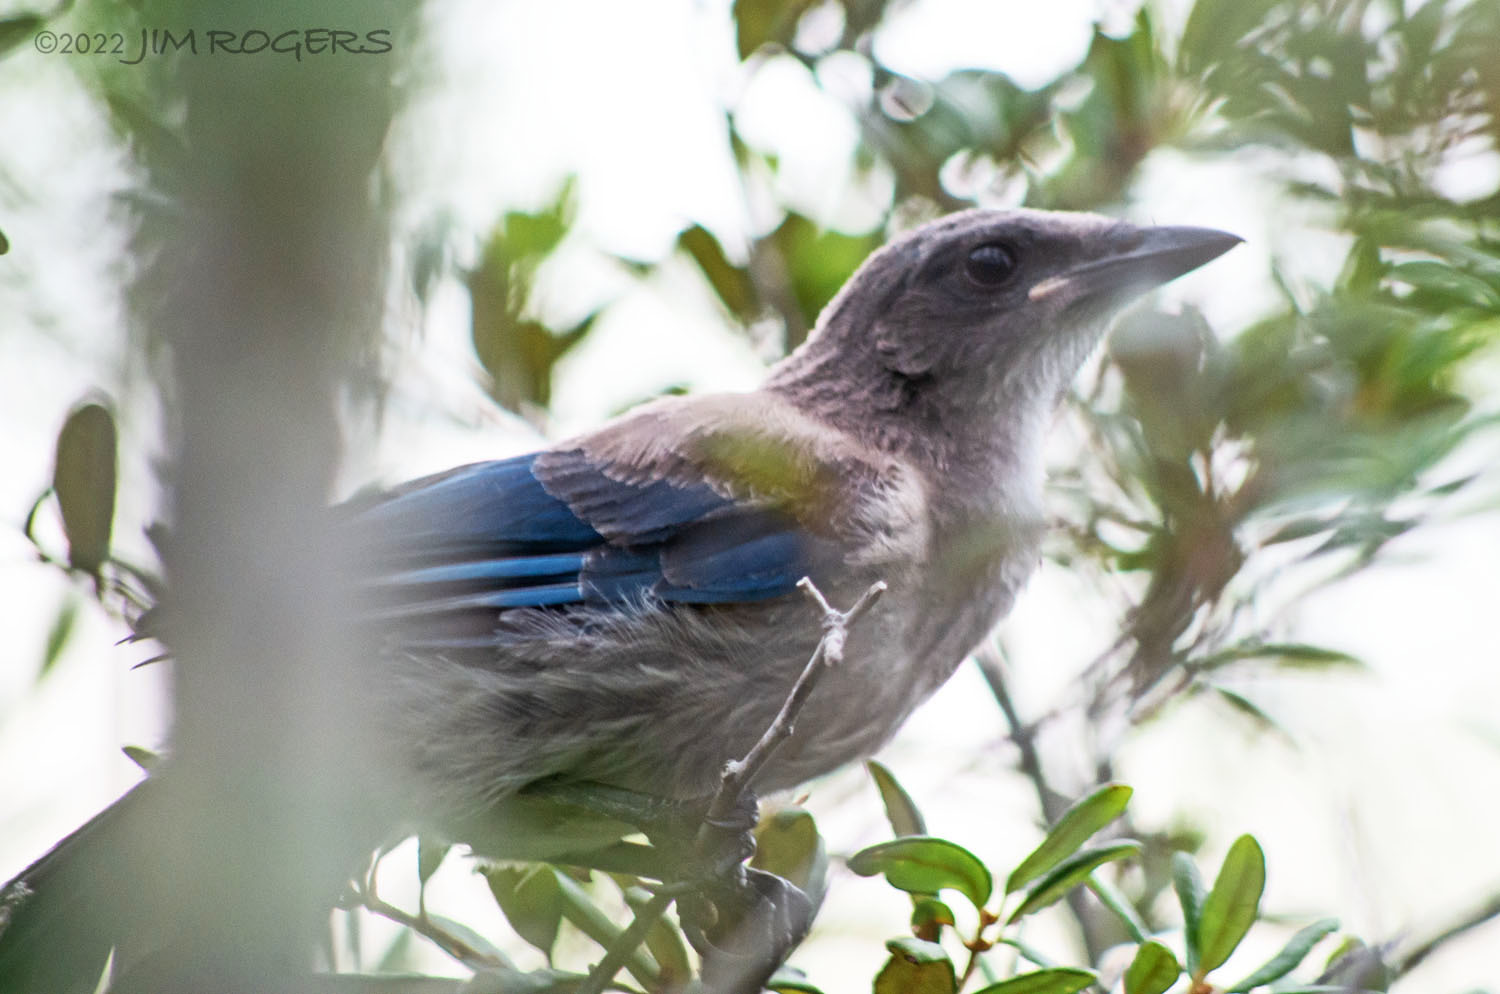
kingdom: Animalia
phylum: Chordata
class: Aves
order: Passeriformes
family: Corvidae
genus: Aphelocoma
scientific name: Aphelocoma coerulescens
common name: Florida scrub jay
